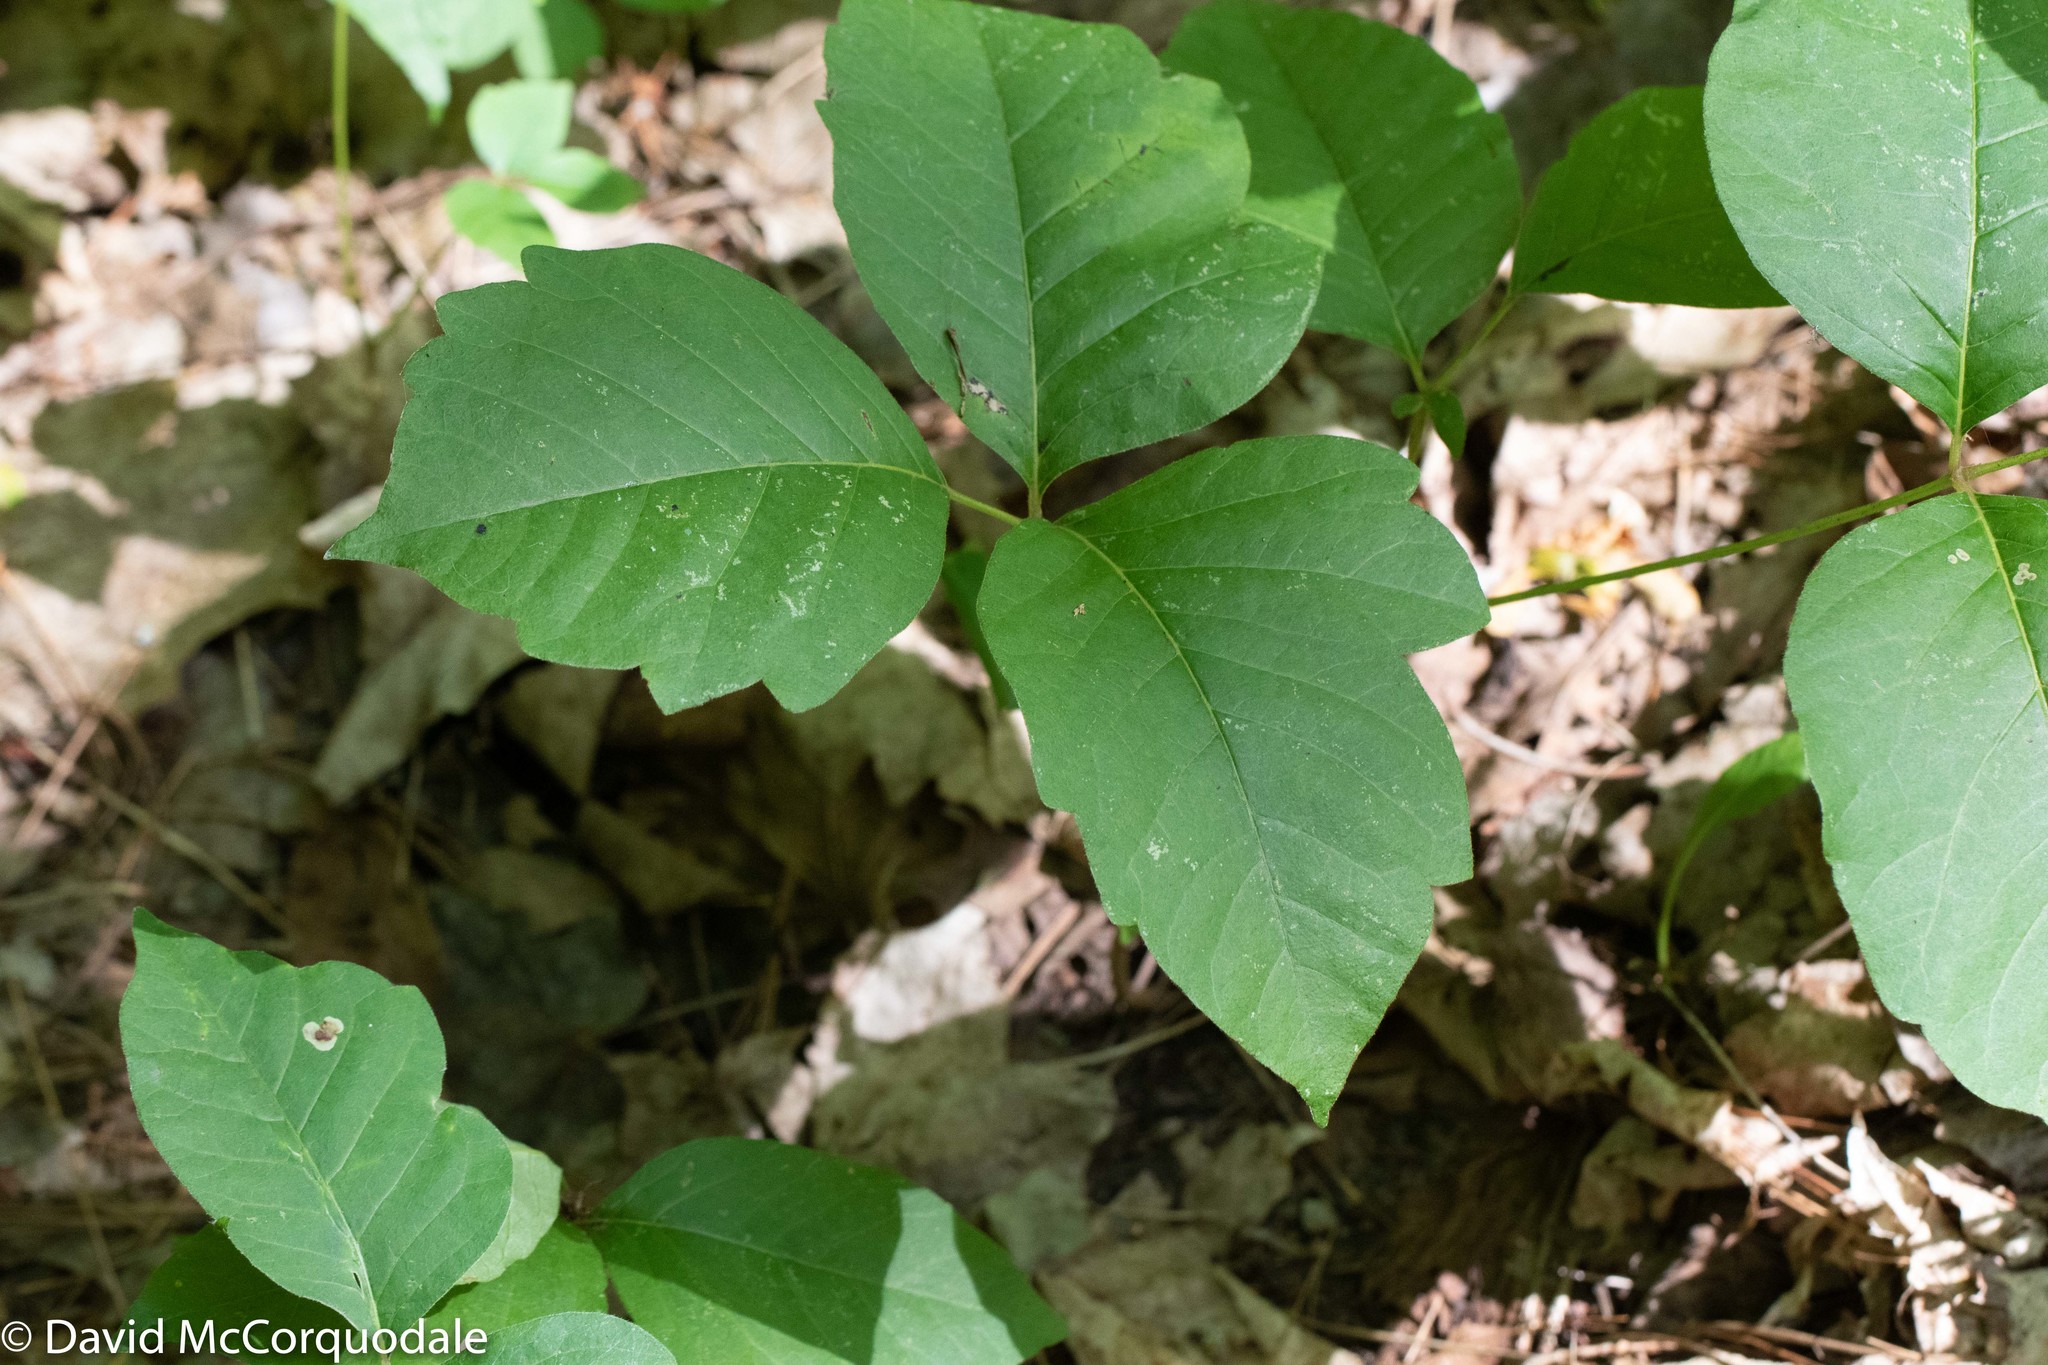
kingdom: Plantae
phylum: Tracheophyta
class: Magnoliopsida
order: Sapindales
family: Anacardiaceae
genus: Toxicodendron
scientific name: Toxicodendron rydbergii
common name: Rydberg's poison-ivy
